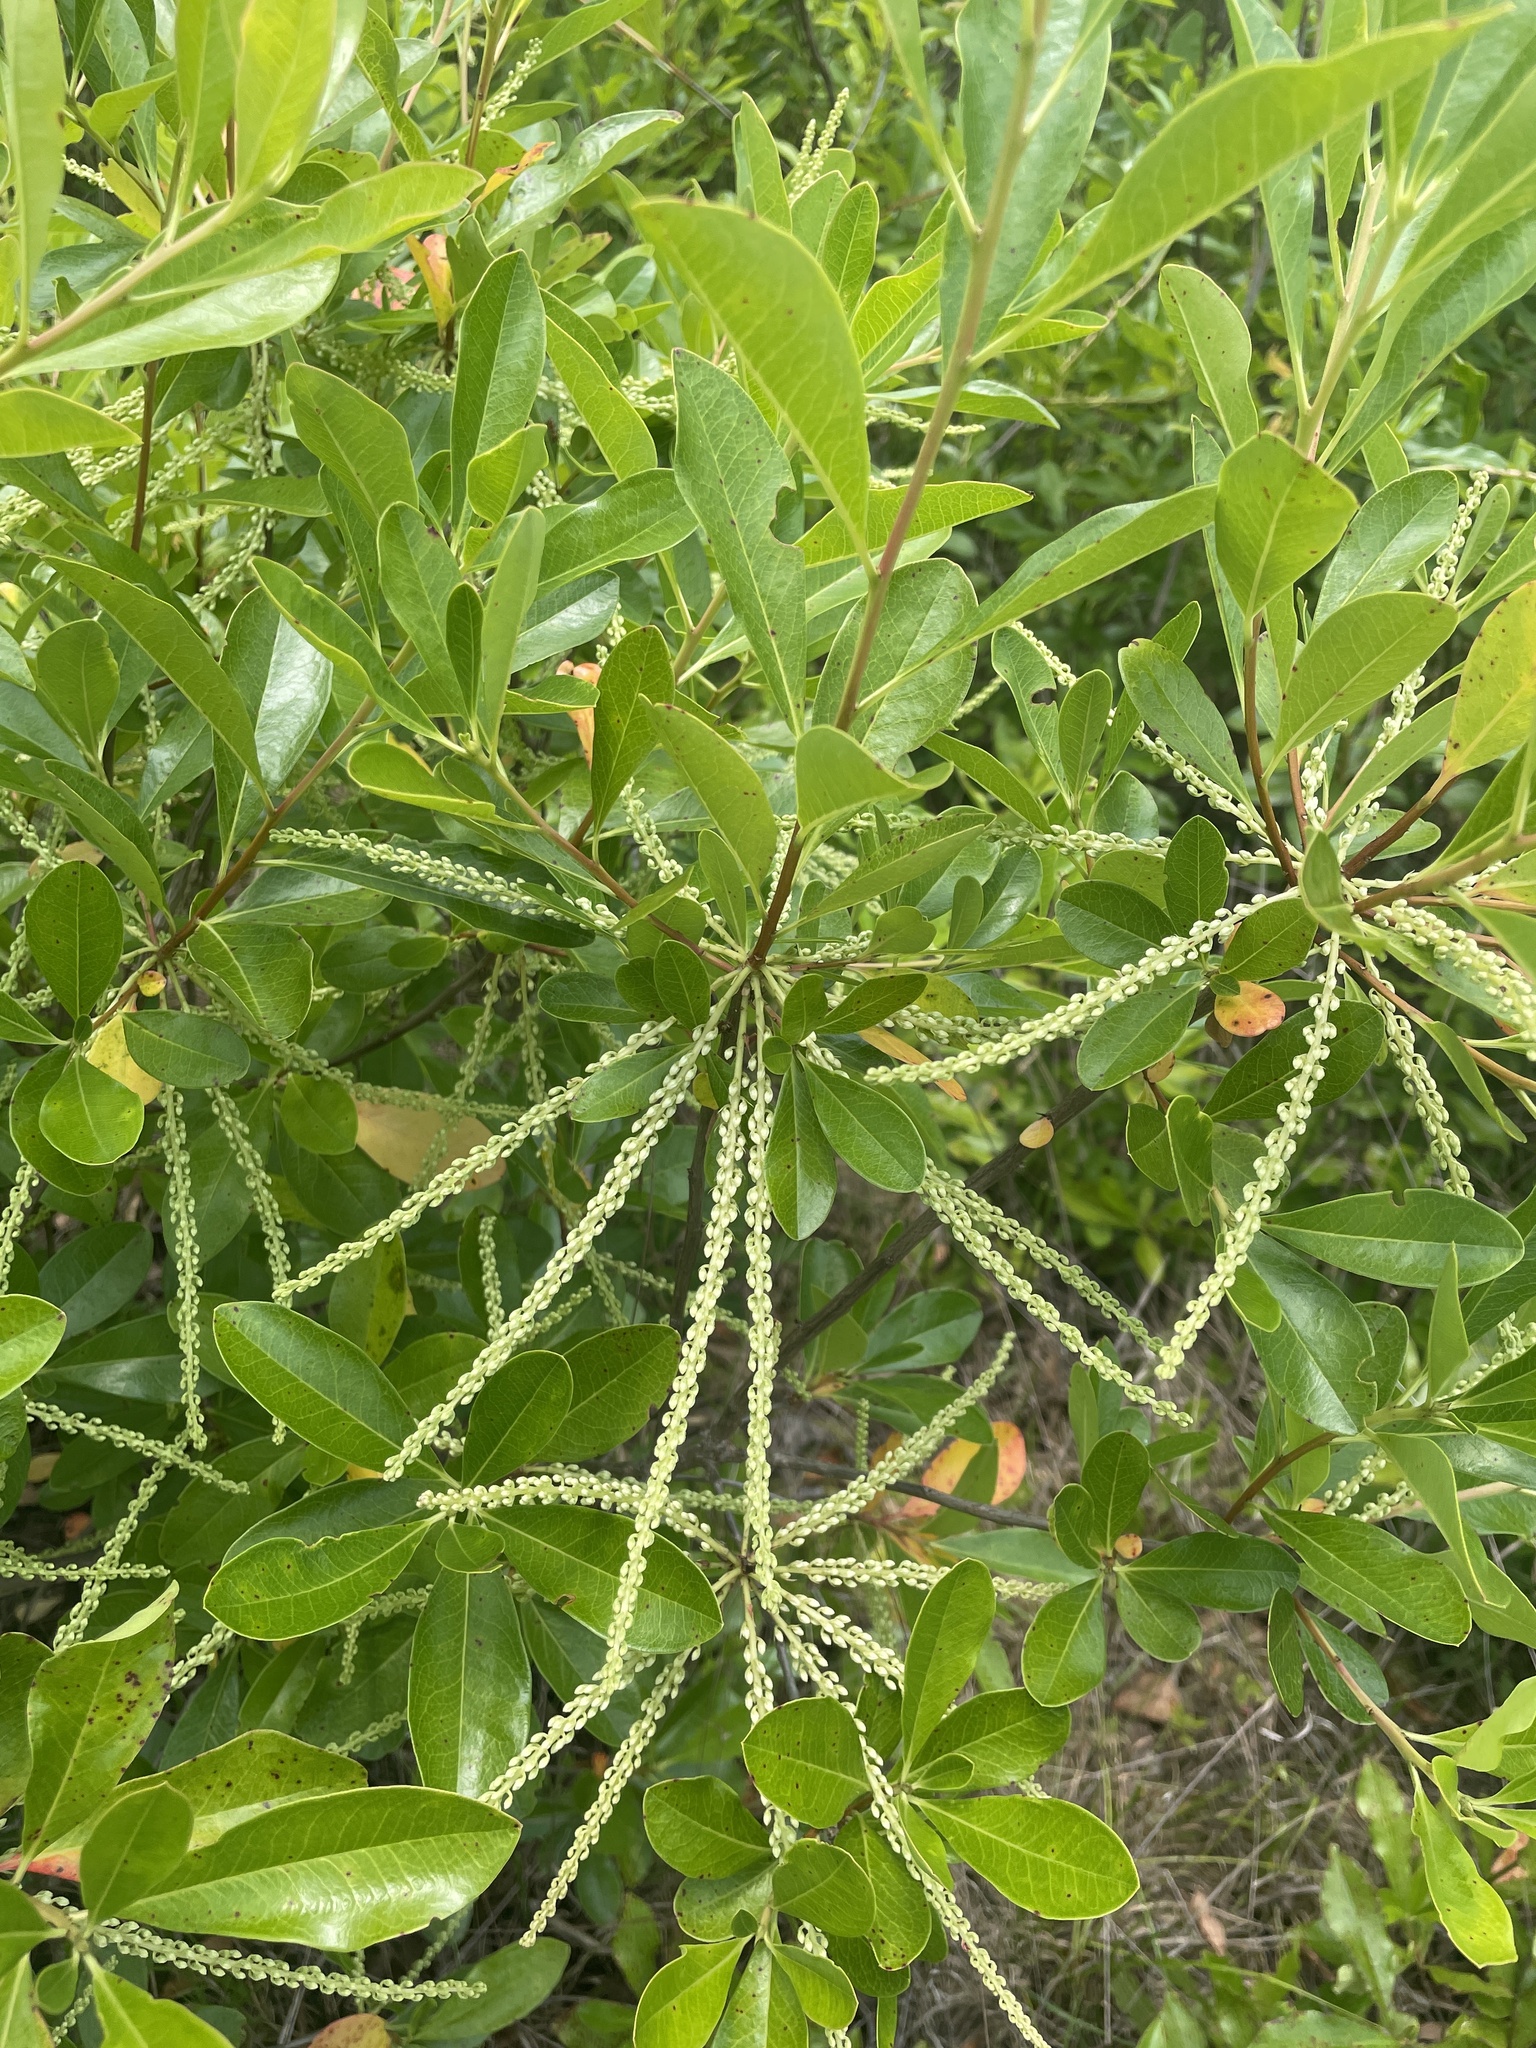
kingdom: Plantae
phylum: Tracheophyta
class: Magnoliopsida
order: Ericales
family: Cyrillaceae
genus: Cyrilla
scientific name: Cyrilla racemiflora
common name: Black titi
